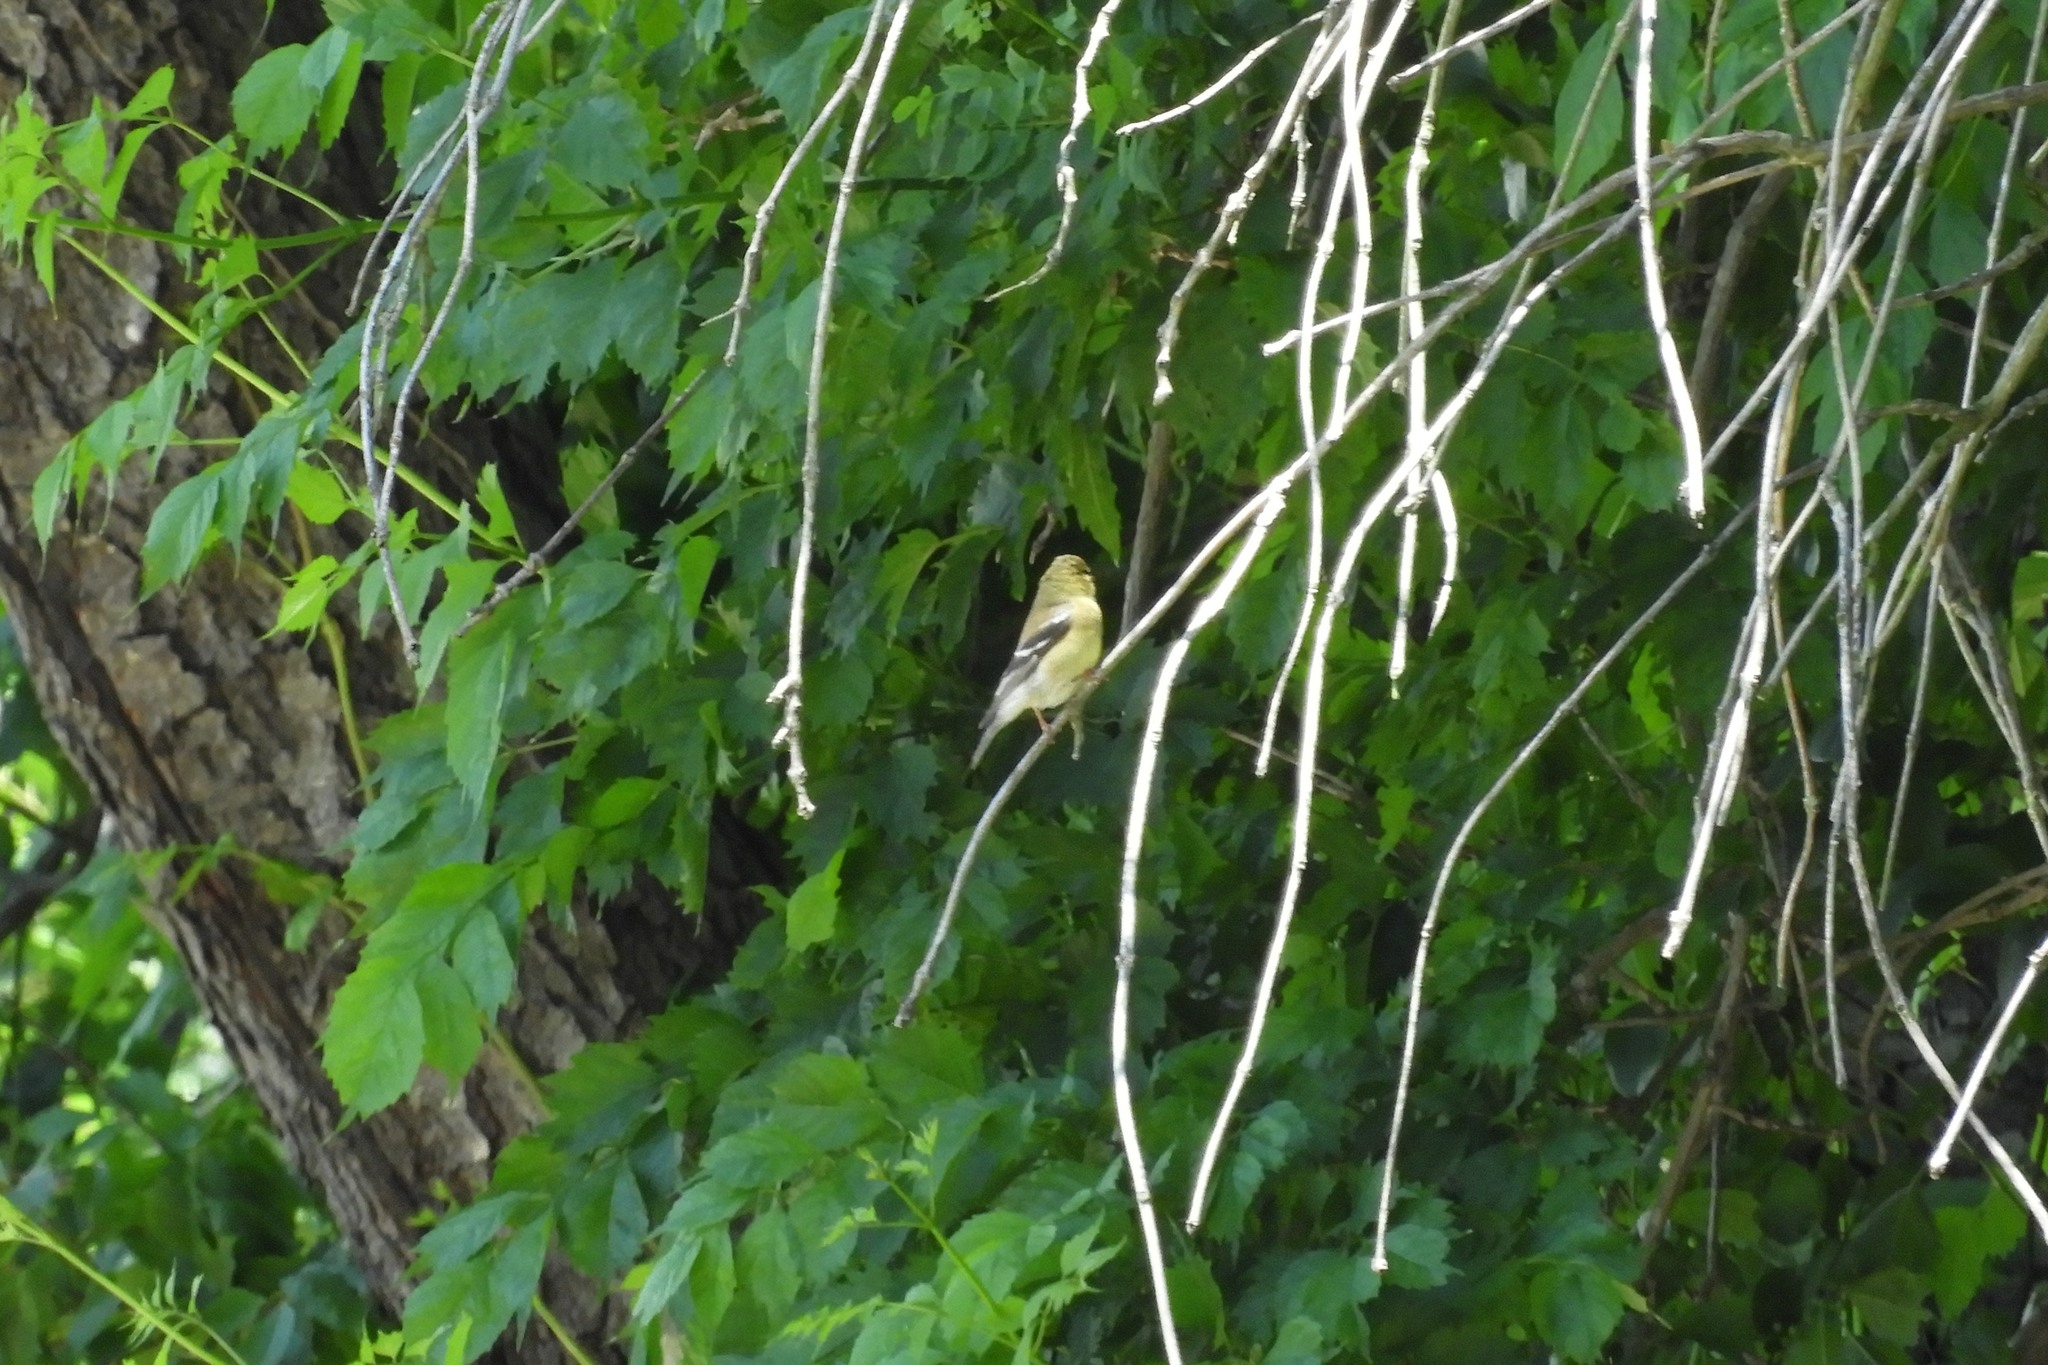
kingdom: Animalia
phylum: Chordata
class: Aves
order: Passeriformes
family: Fringillidae
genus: Spinus
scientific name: Spinus tristis
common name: American goldfinch
